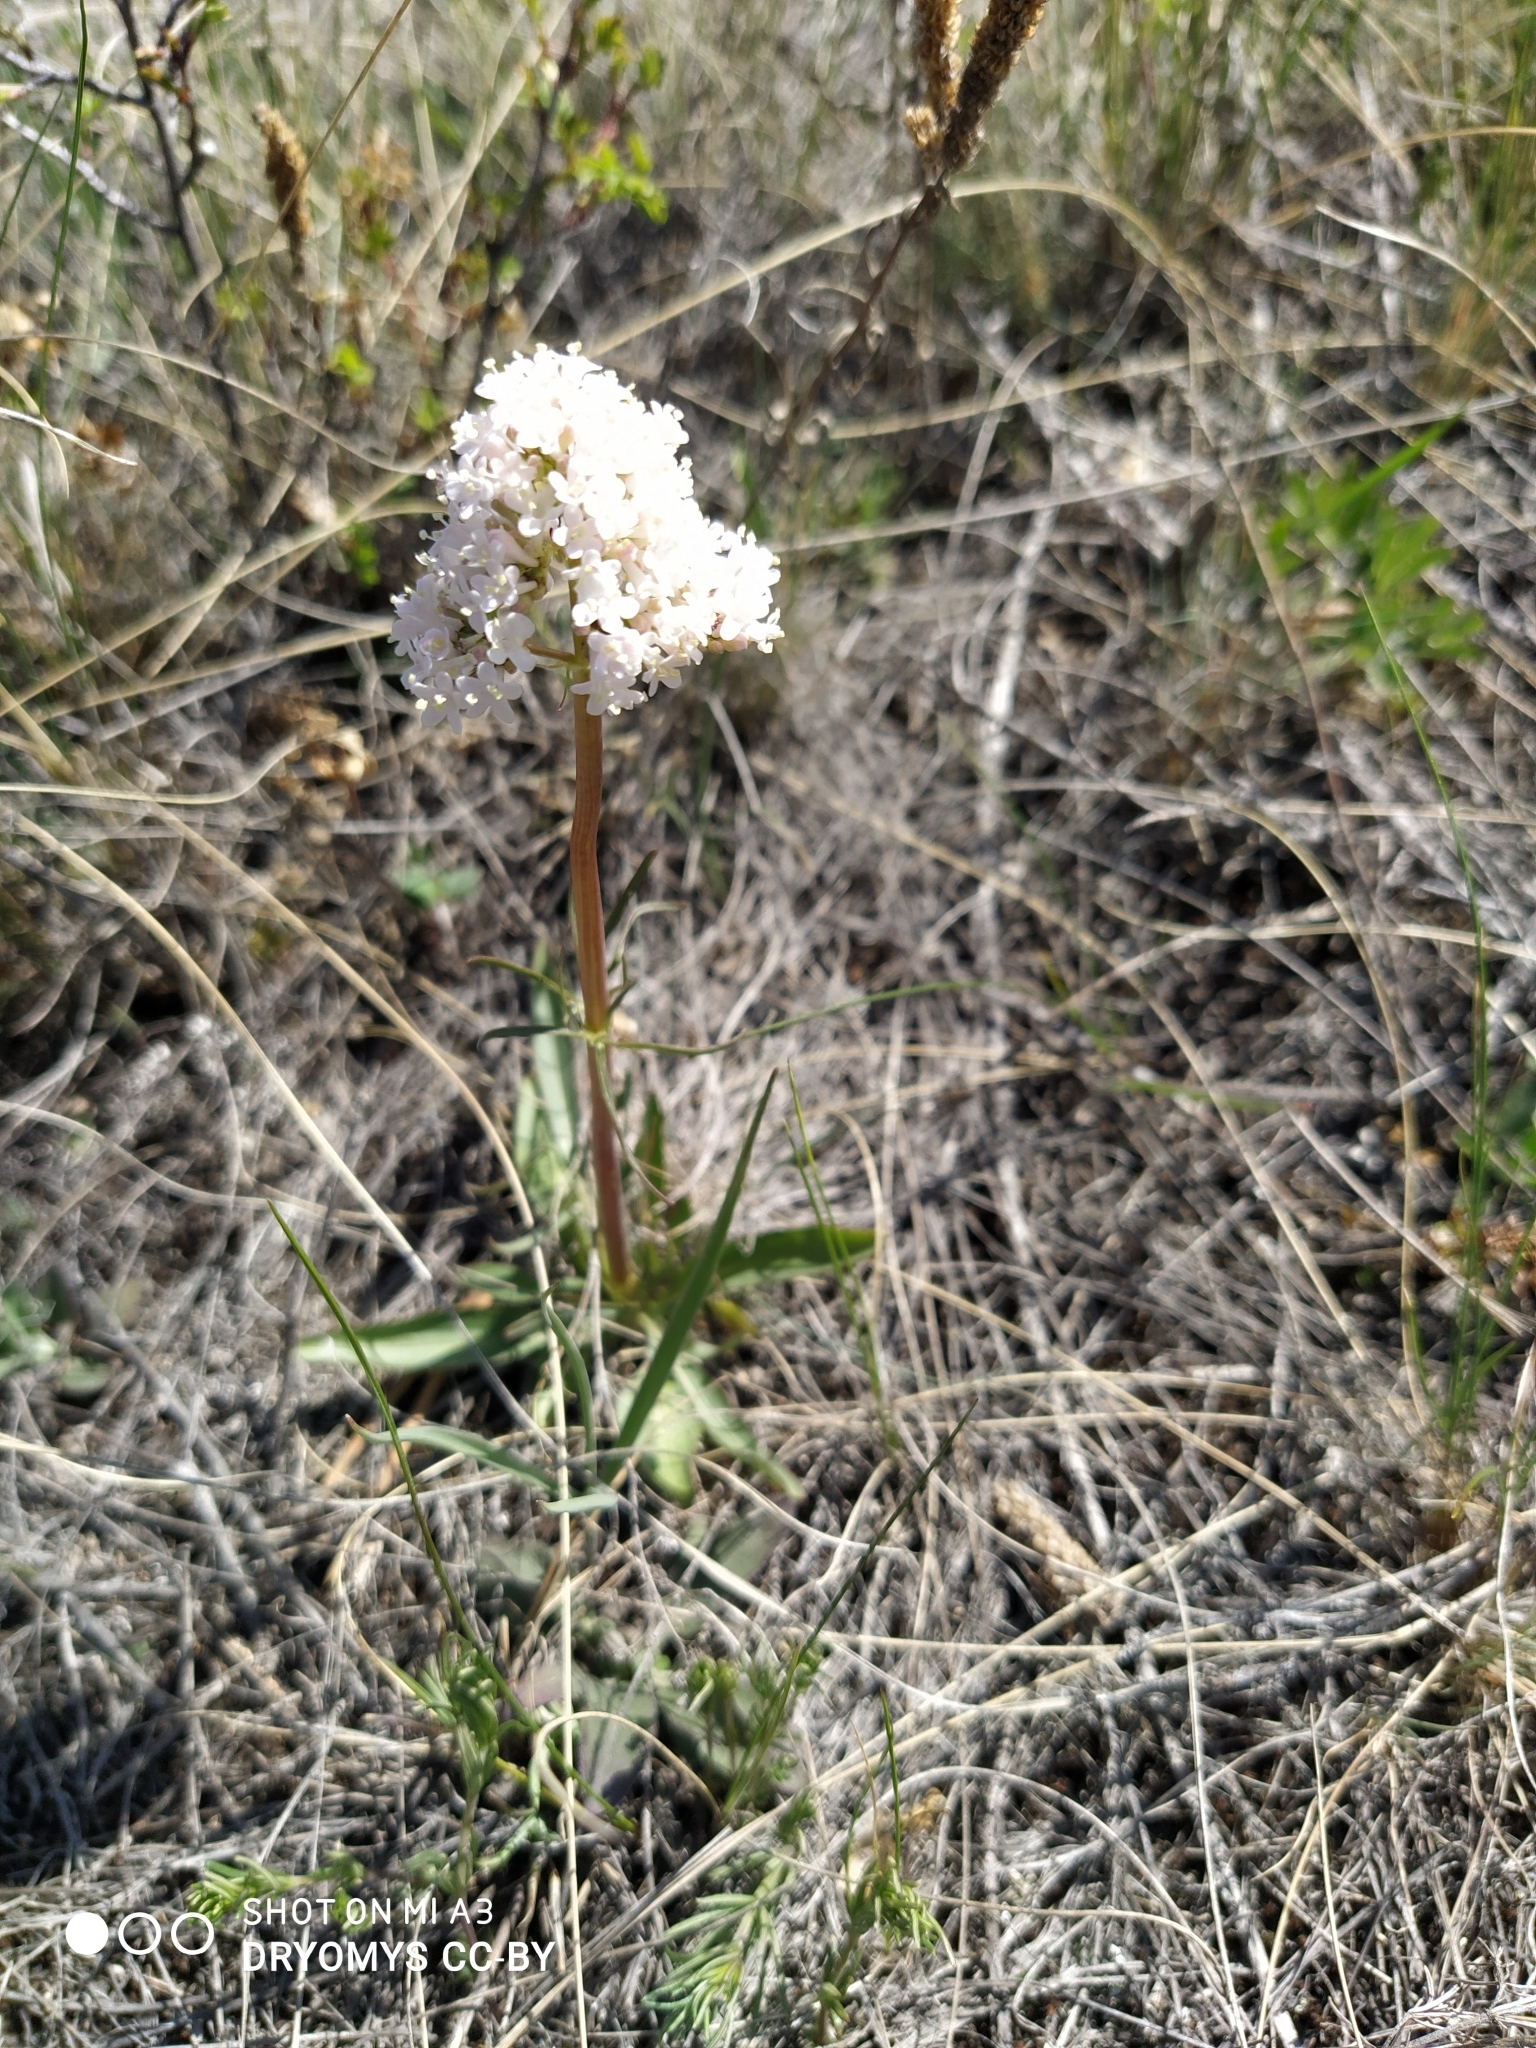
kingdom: Plantae
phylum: Tracheophyta
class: Magnoliopsida
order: Dipsacales
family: Caprifoliaceae
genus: Valeriana
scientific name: Valeriana tuberosa
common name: Tuberous valerian
